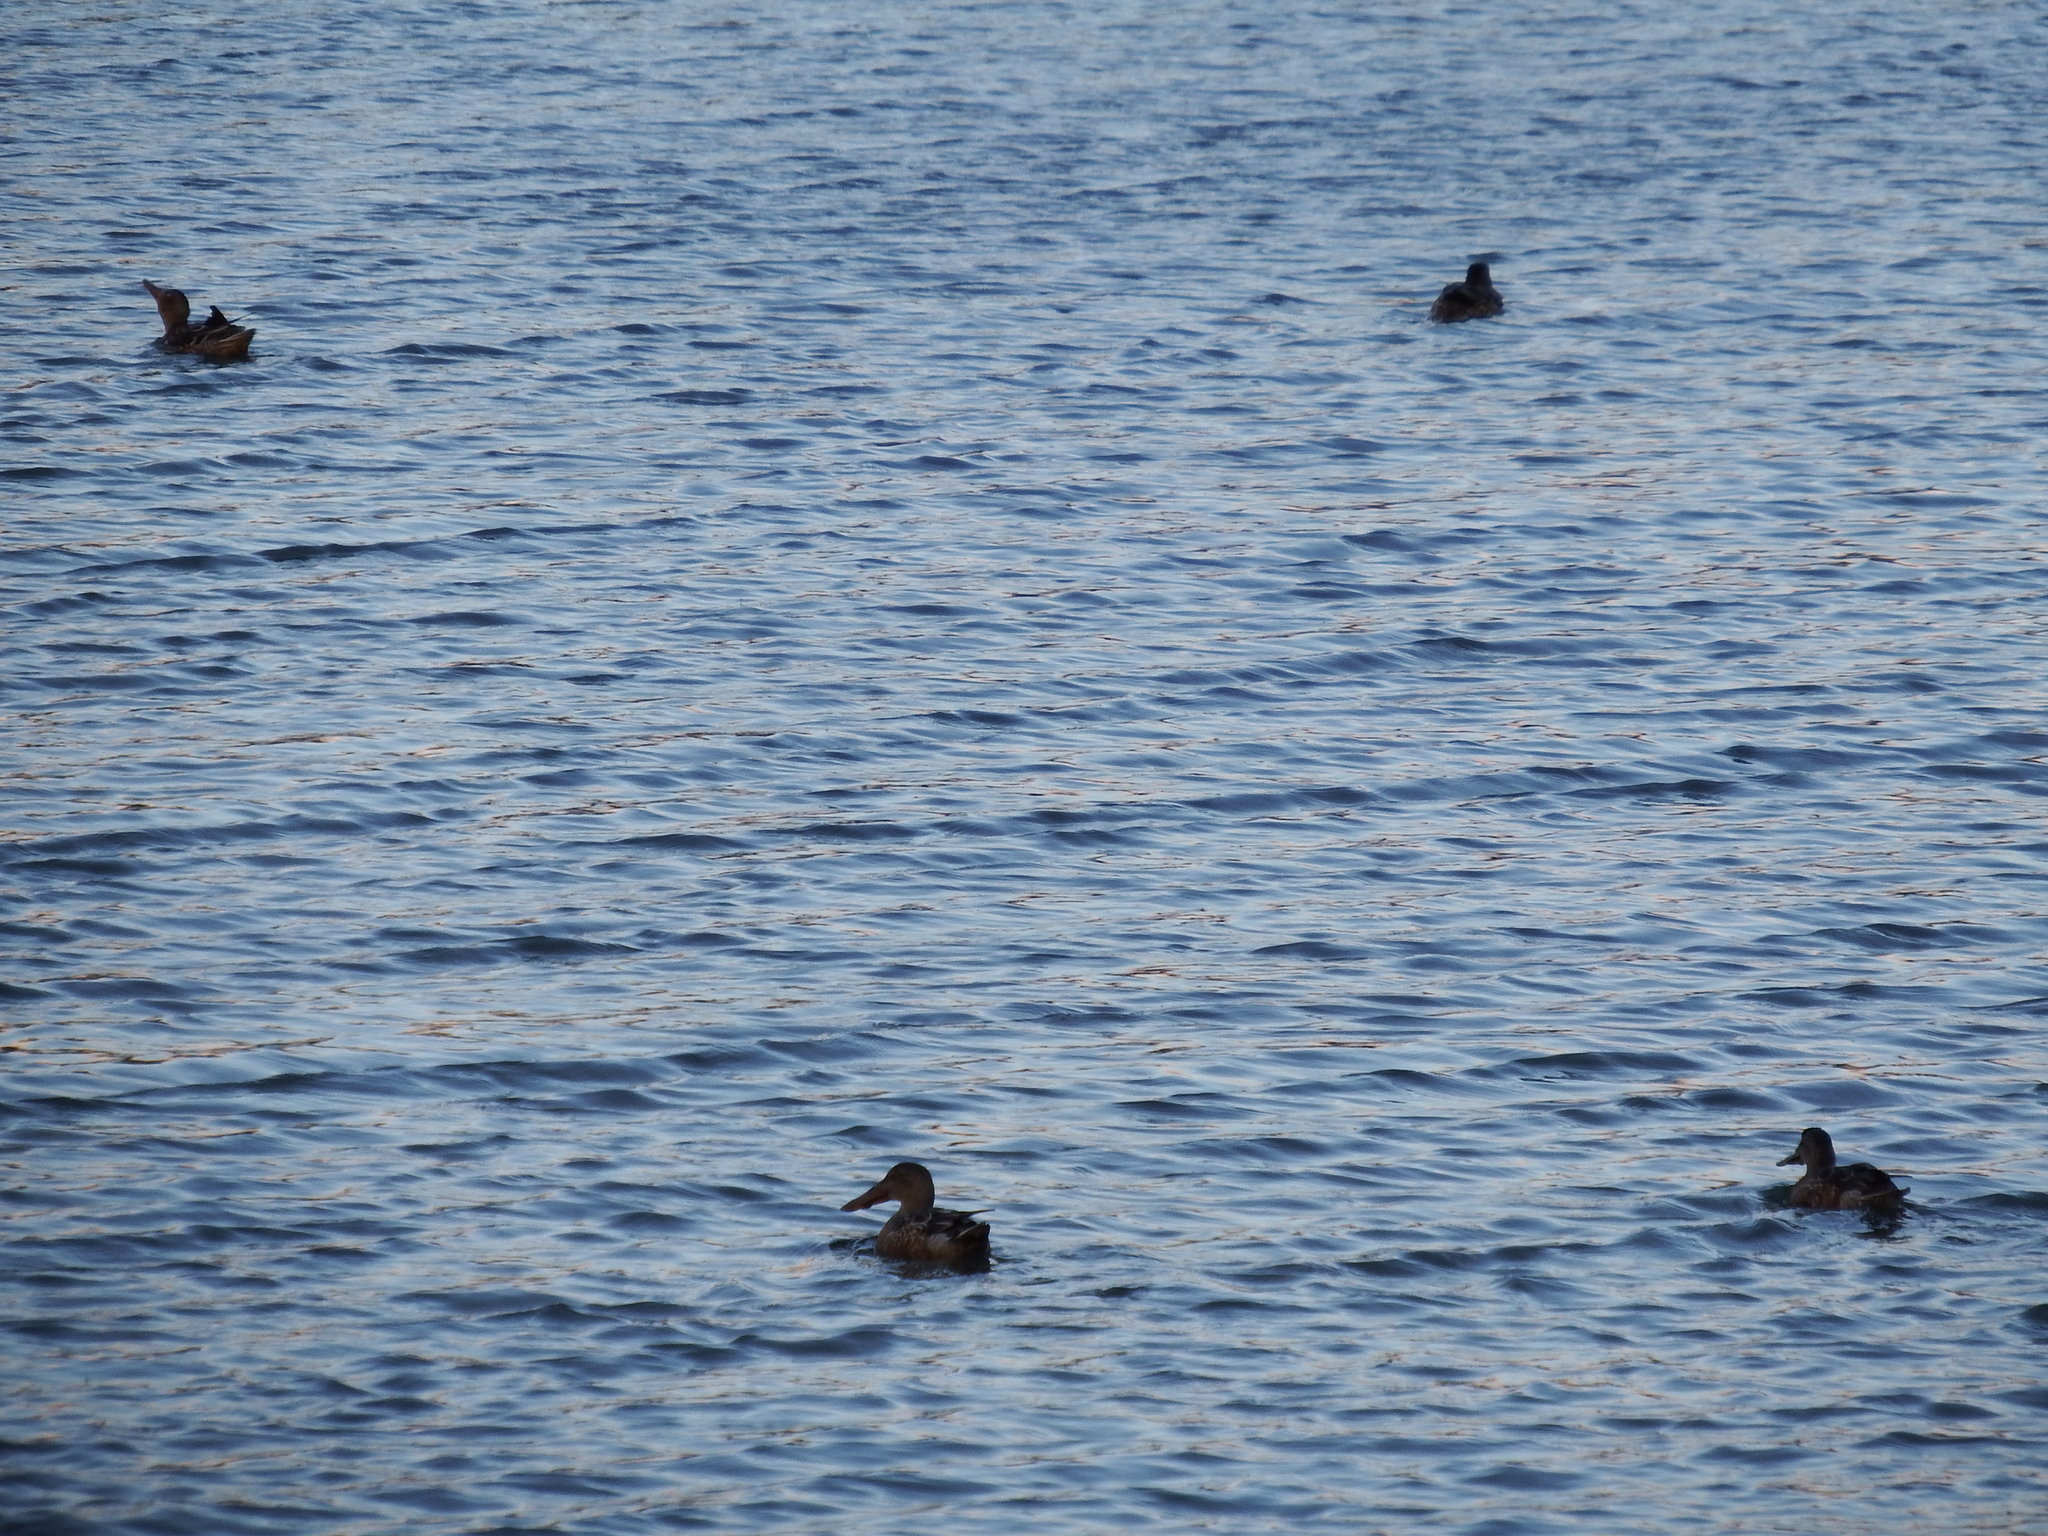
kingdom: Animalia
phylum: Chordata
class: Aves
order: Anseriformes
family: Anatidae
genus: Spatula
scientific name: Spatula clypeata
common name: Northern shoveler
